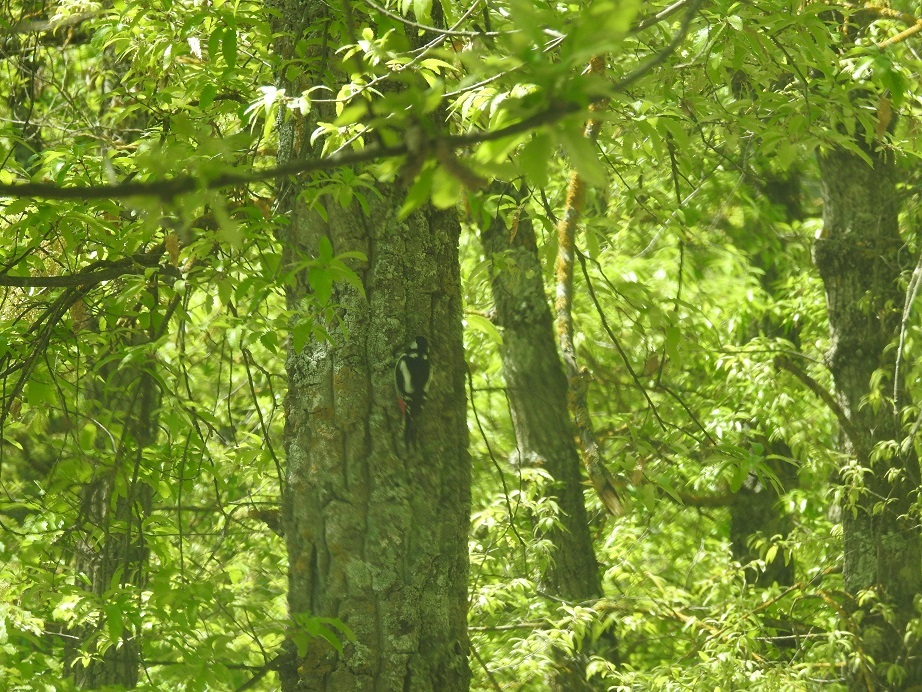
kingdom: Animalia
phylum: Chordata
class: Aves
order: Piciformes
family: Picidae
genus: Dendrocopos
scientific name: Dendrocopos major
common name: Great spotted woodpecker
